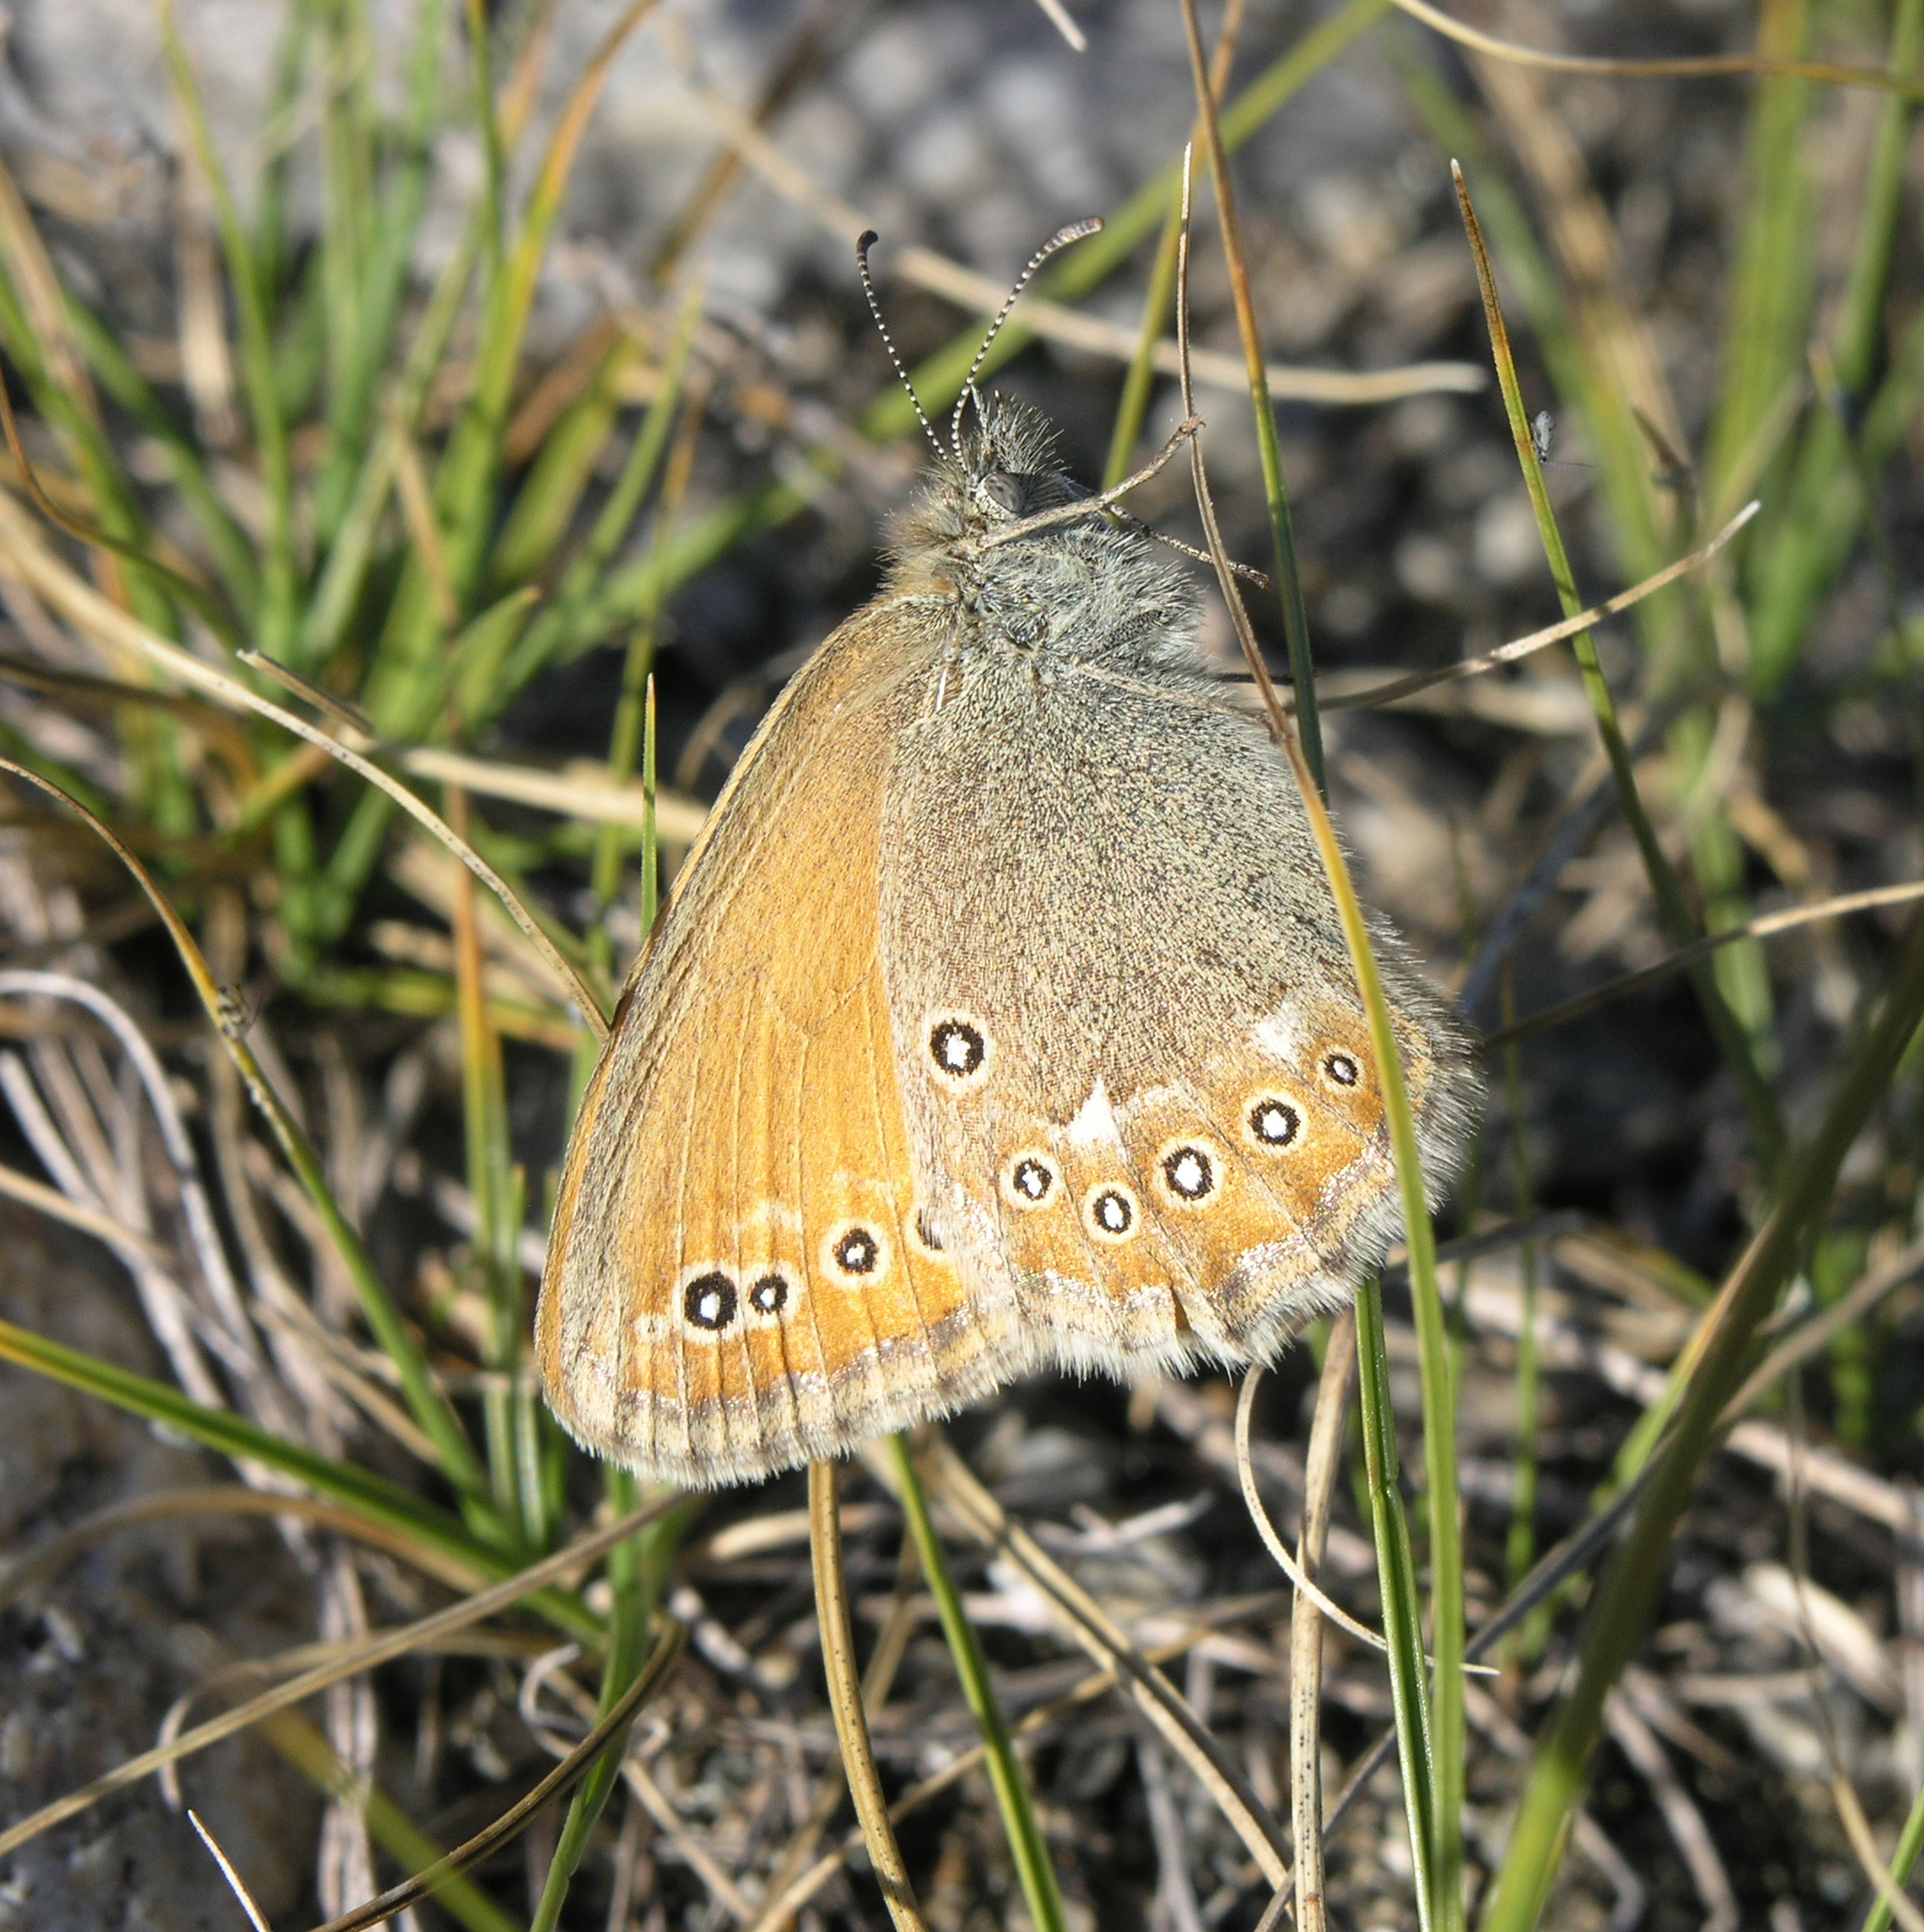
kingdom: Animalia
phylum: Arthropoda
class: Insecta
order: Lepidoptera
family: Nymphalidae
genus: Coenonympha
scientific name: Coenonympha amaryllis
